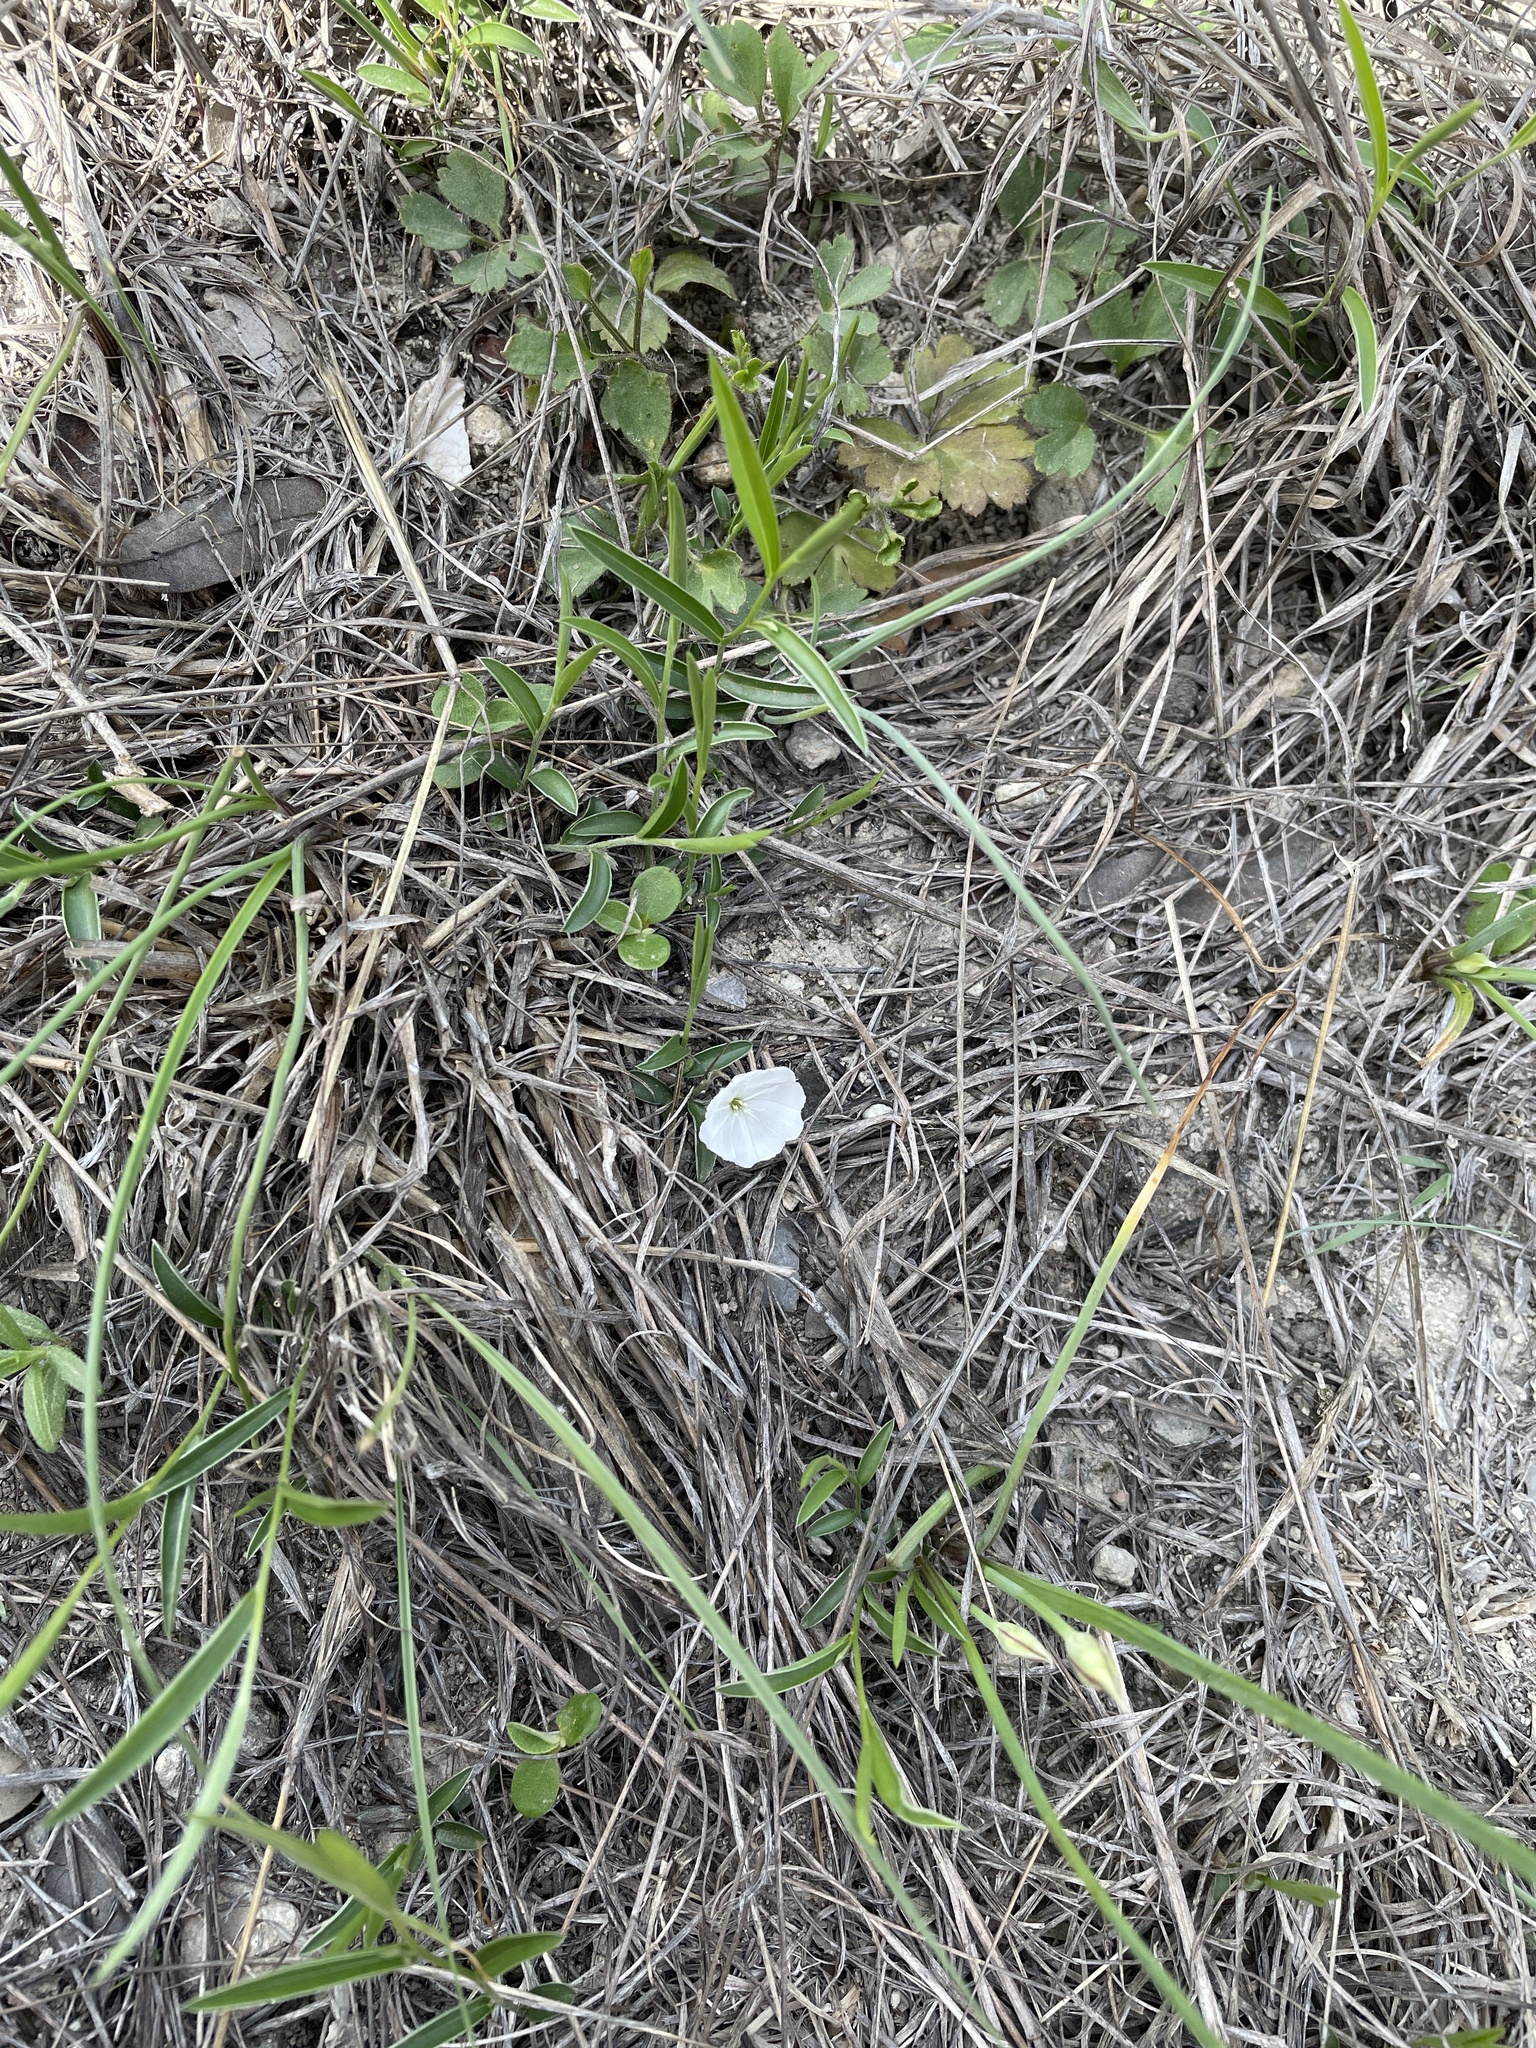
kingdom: Plantae
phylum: Tracheophyta
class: Magnoliopsida
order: Solanales
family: Convolvulaceae
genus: Evolvulus
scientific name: Evolvulus sericeus
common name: Blue dots
